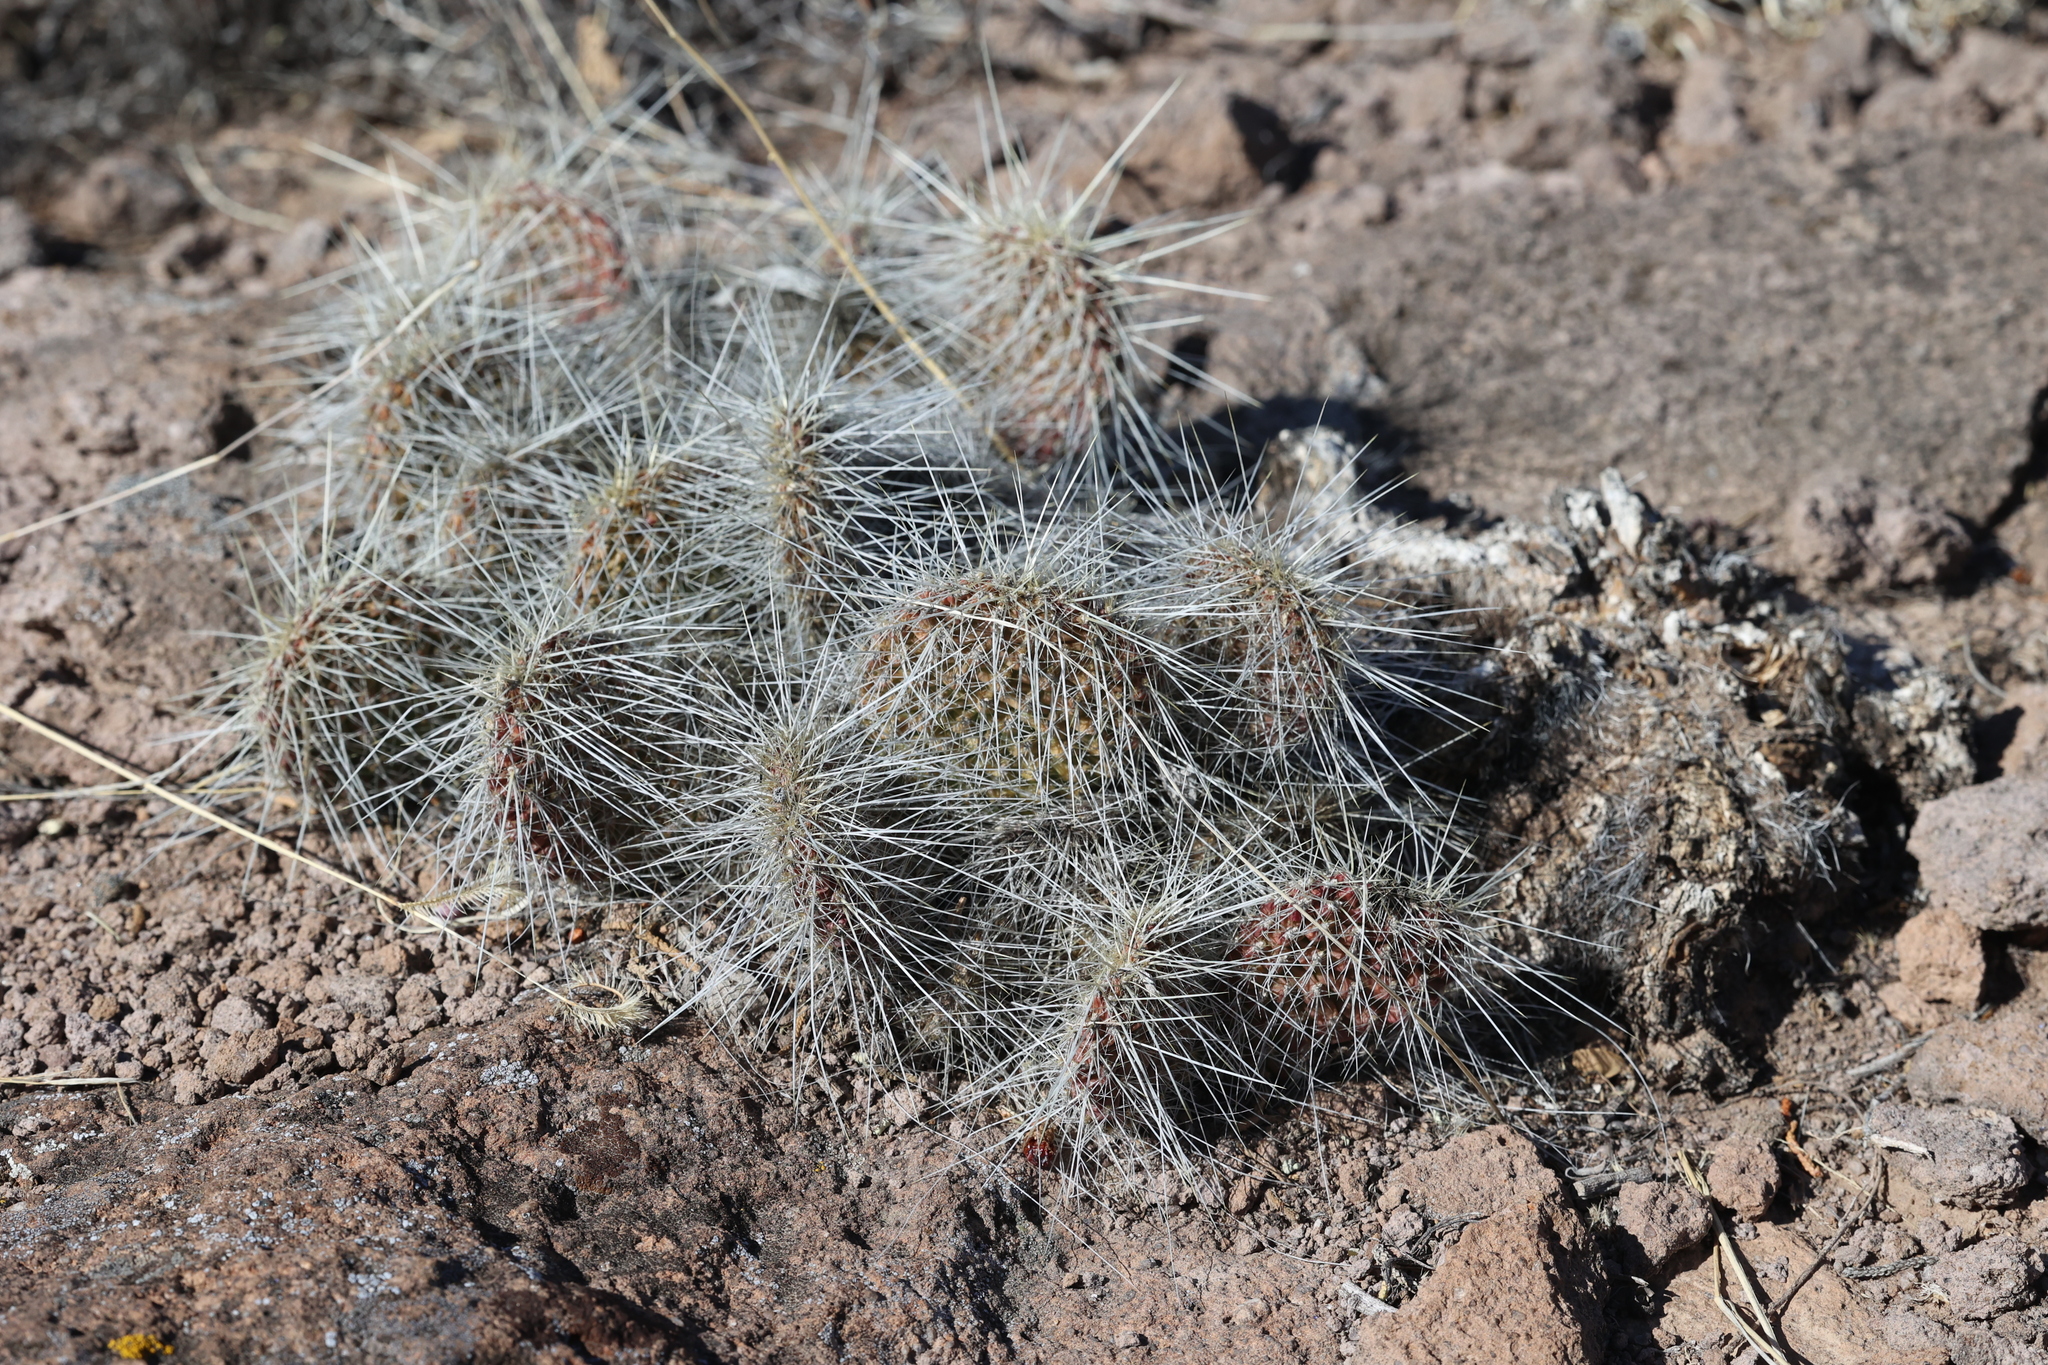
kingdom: Plantae
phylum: Tracheophyta
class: Magnoliopsida
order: Caryophyllales
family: Cactaceae
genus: Opuntia
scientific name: Opuntia polyacantha
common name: Plains prickly-pear
